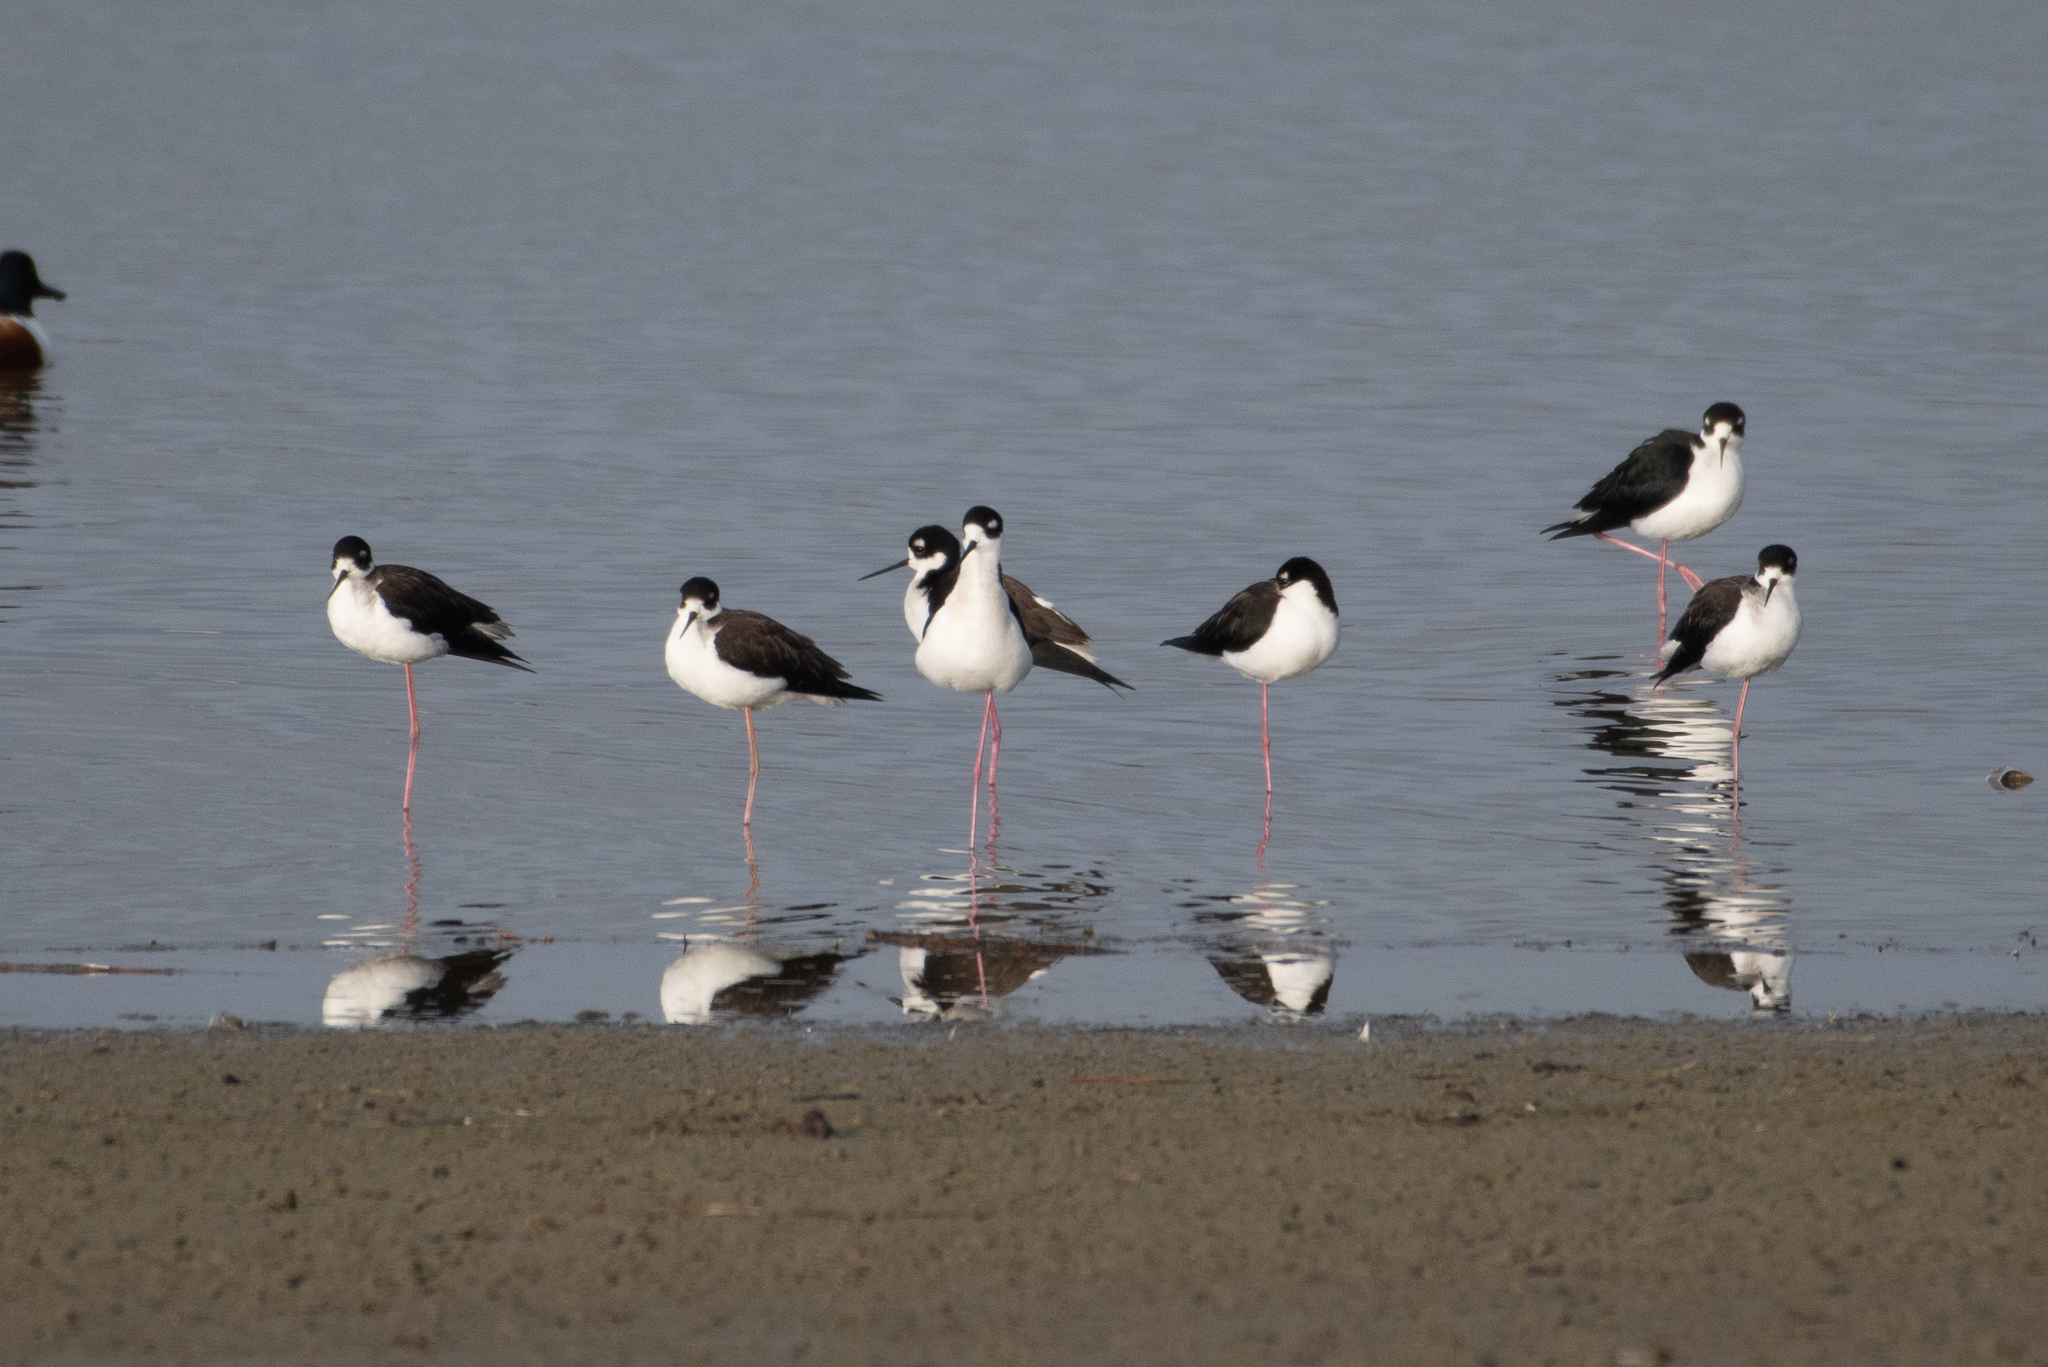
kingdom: Animalia
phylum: Chordata
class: Aves
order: Charadriiformes
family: Recurvirostridae
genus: Himantopus
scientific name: Himantopus mexicanus
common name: Black-necked stilt
